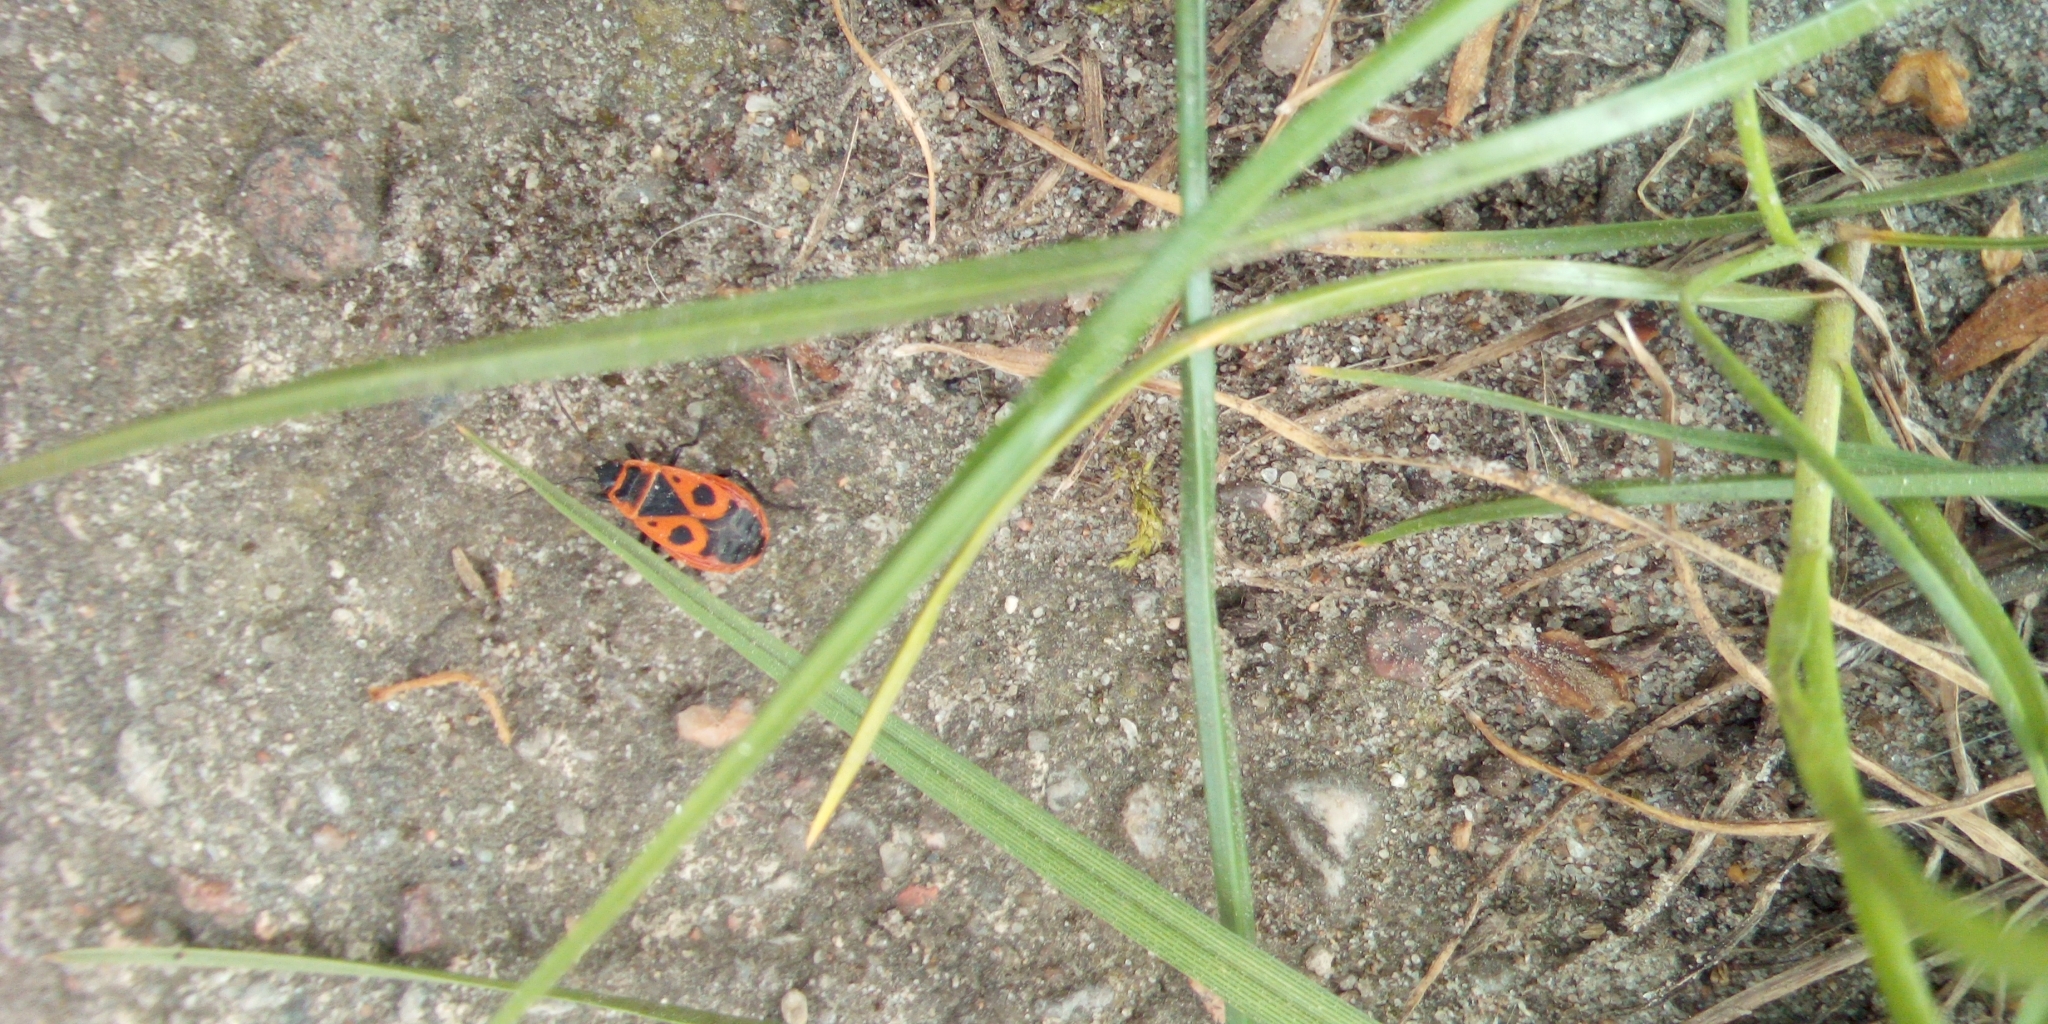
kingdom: Animalia
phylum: Arthropoda
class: Insecta
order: Hemiptera
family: Pyrrhocoridae
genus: Pyrrhocoris
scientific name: Pyrrhocoris apterus
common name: Firebug
